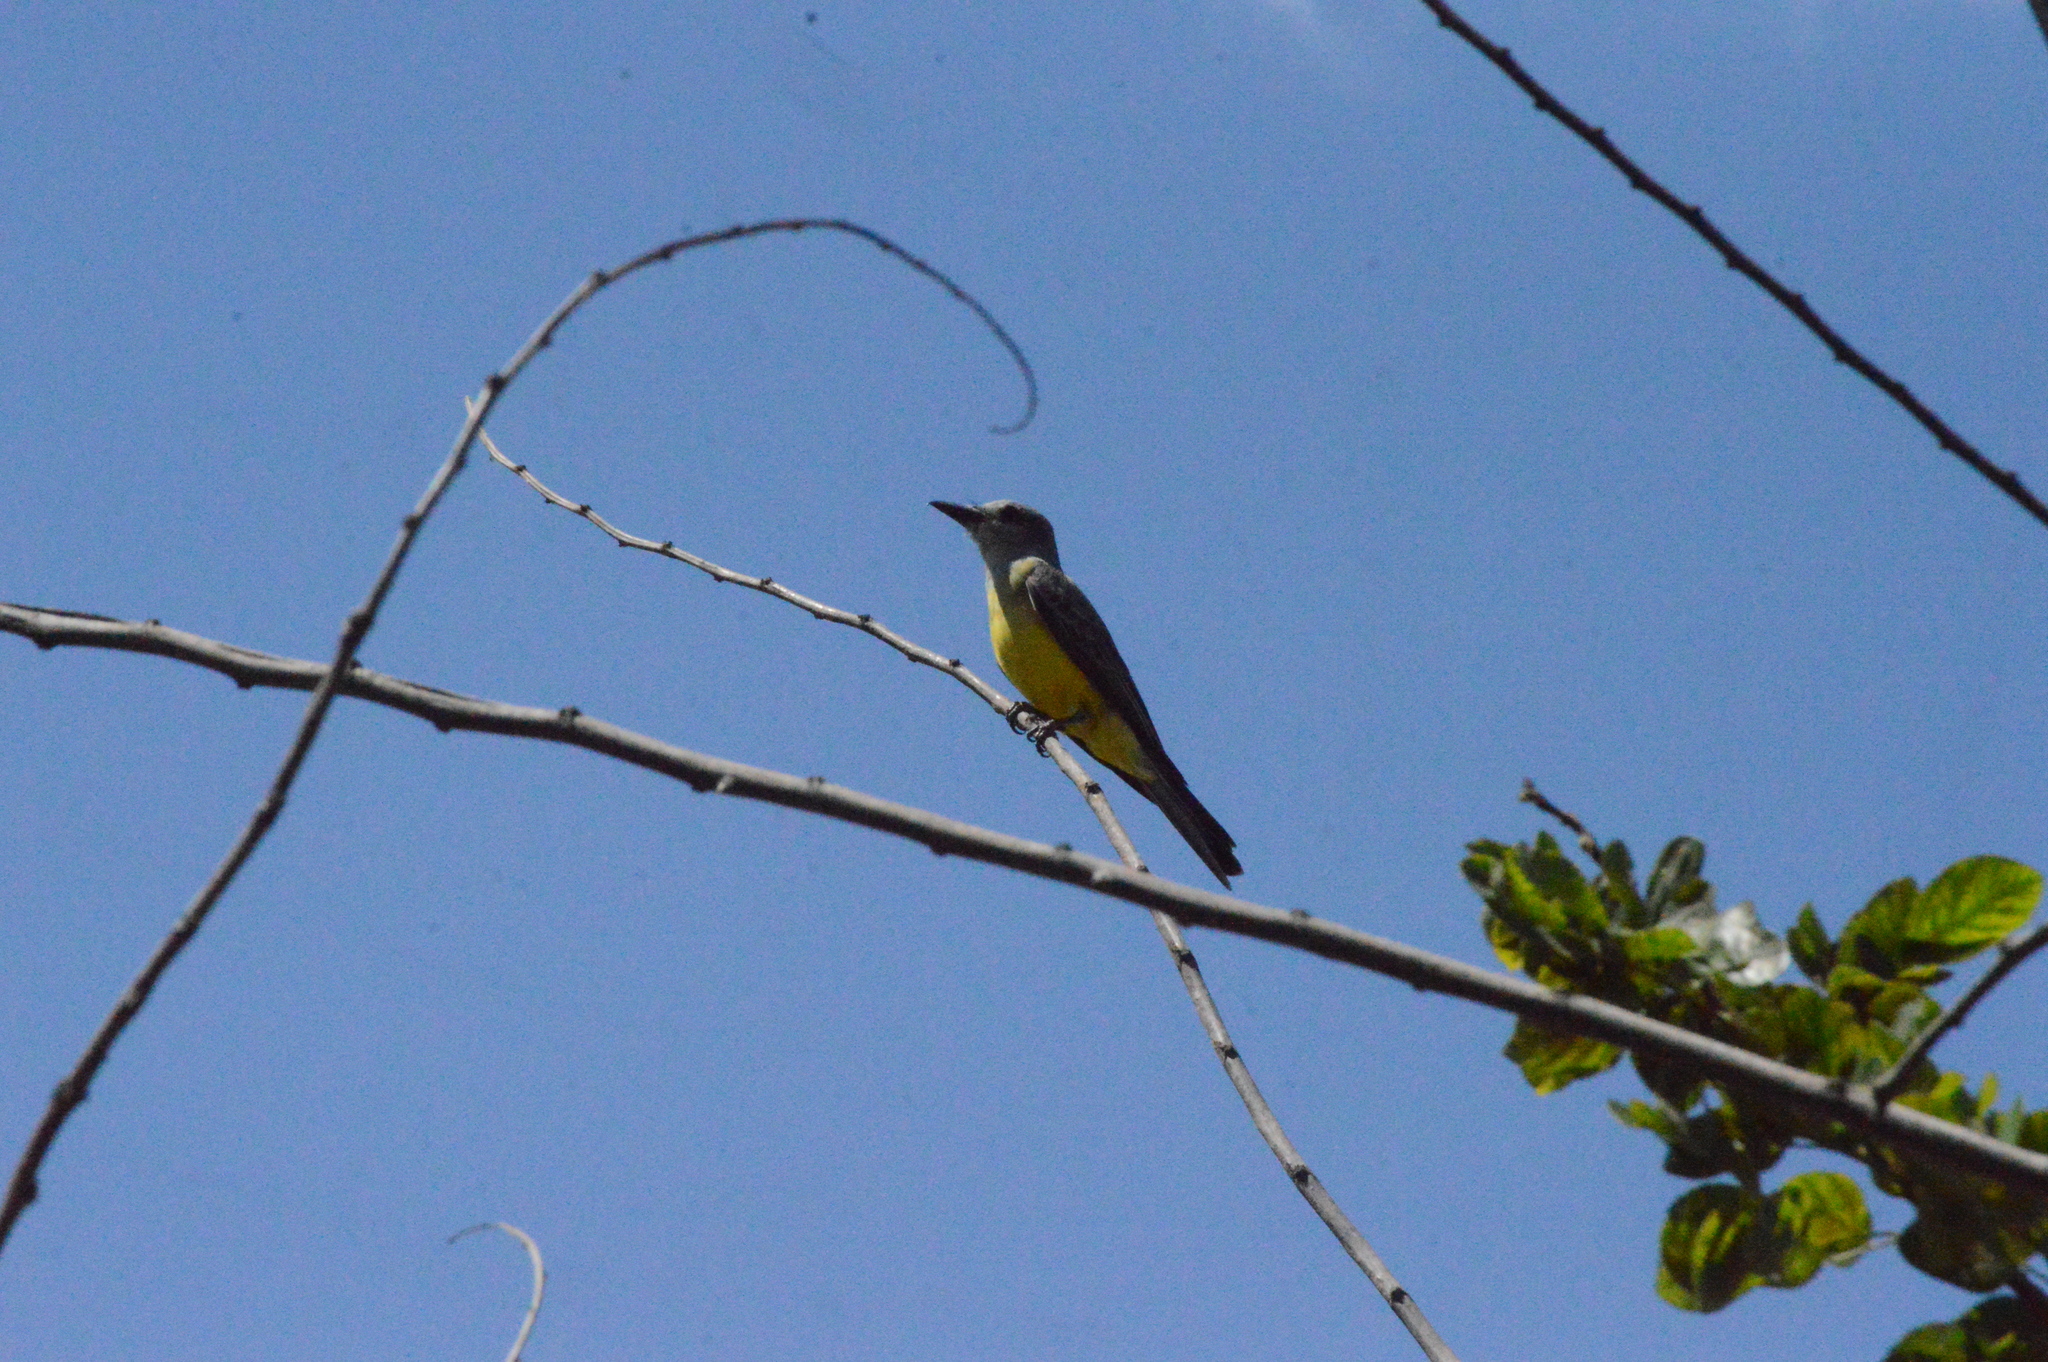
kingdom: Animalia
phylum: Chordata
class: Aves
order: Passeriformes
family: Tyrannidae
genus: Tyrannus
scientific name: Tyrannus melancholicus
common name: Tropical kingbird
